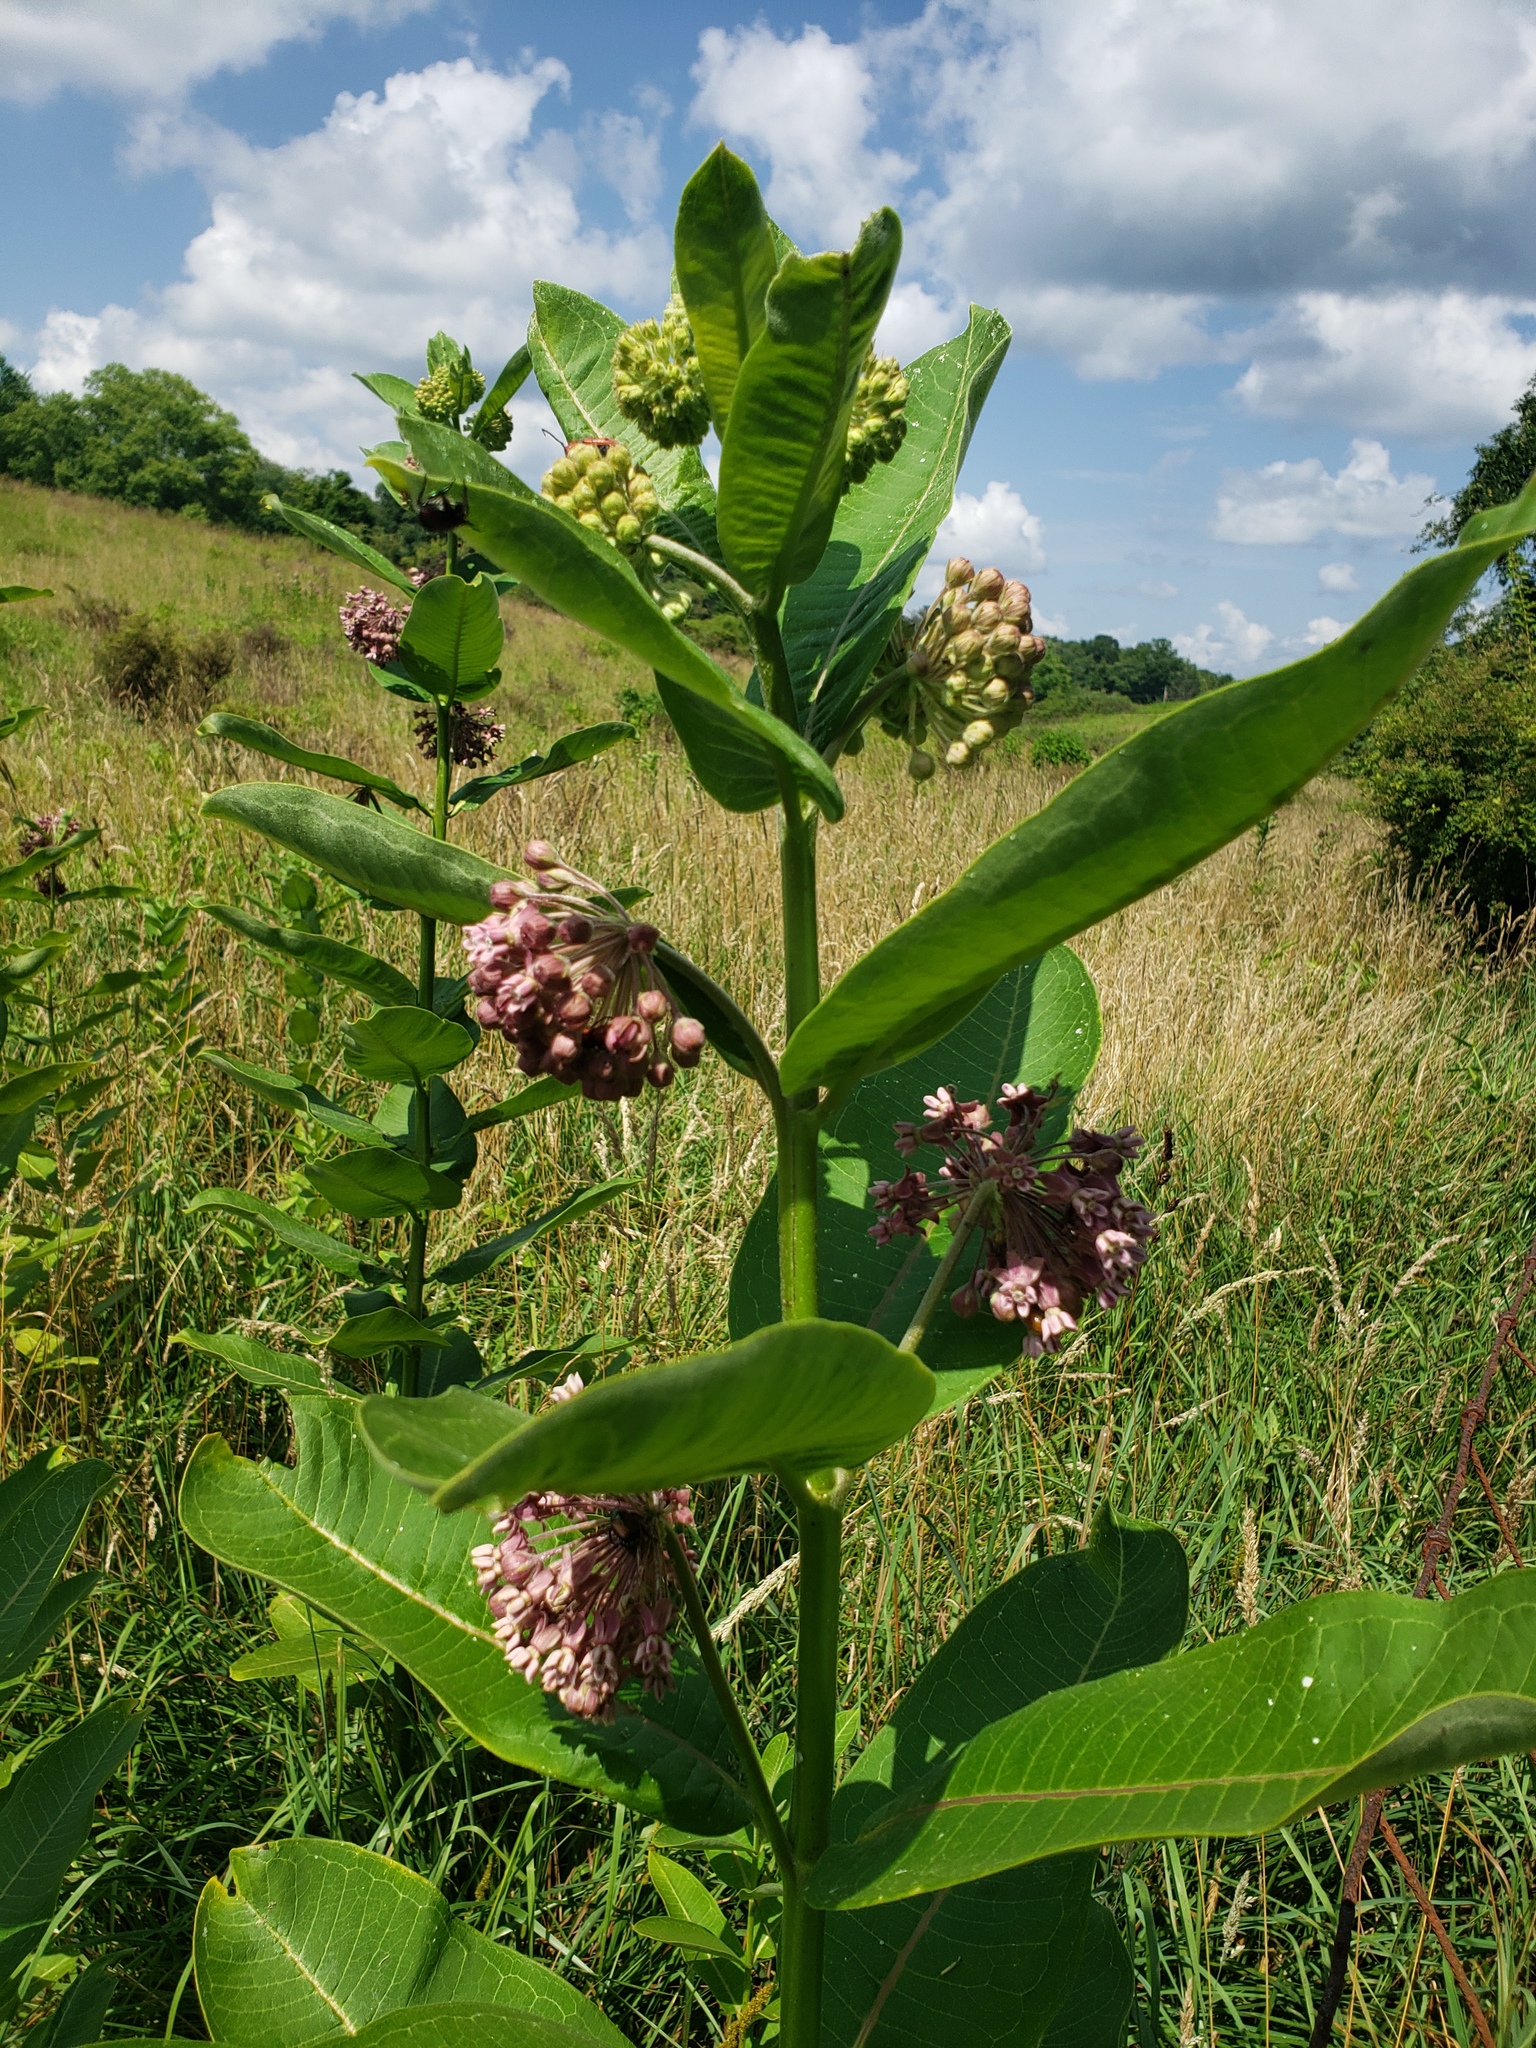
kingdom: Plantae
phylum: Tracheophyta
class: Magnoliopsida
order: Gentianales
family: Apocynaceae
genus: Asclepias
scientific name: Asclepias syriaca
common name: Common milkweed
